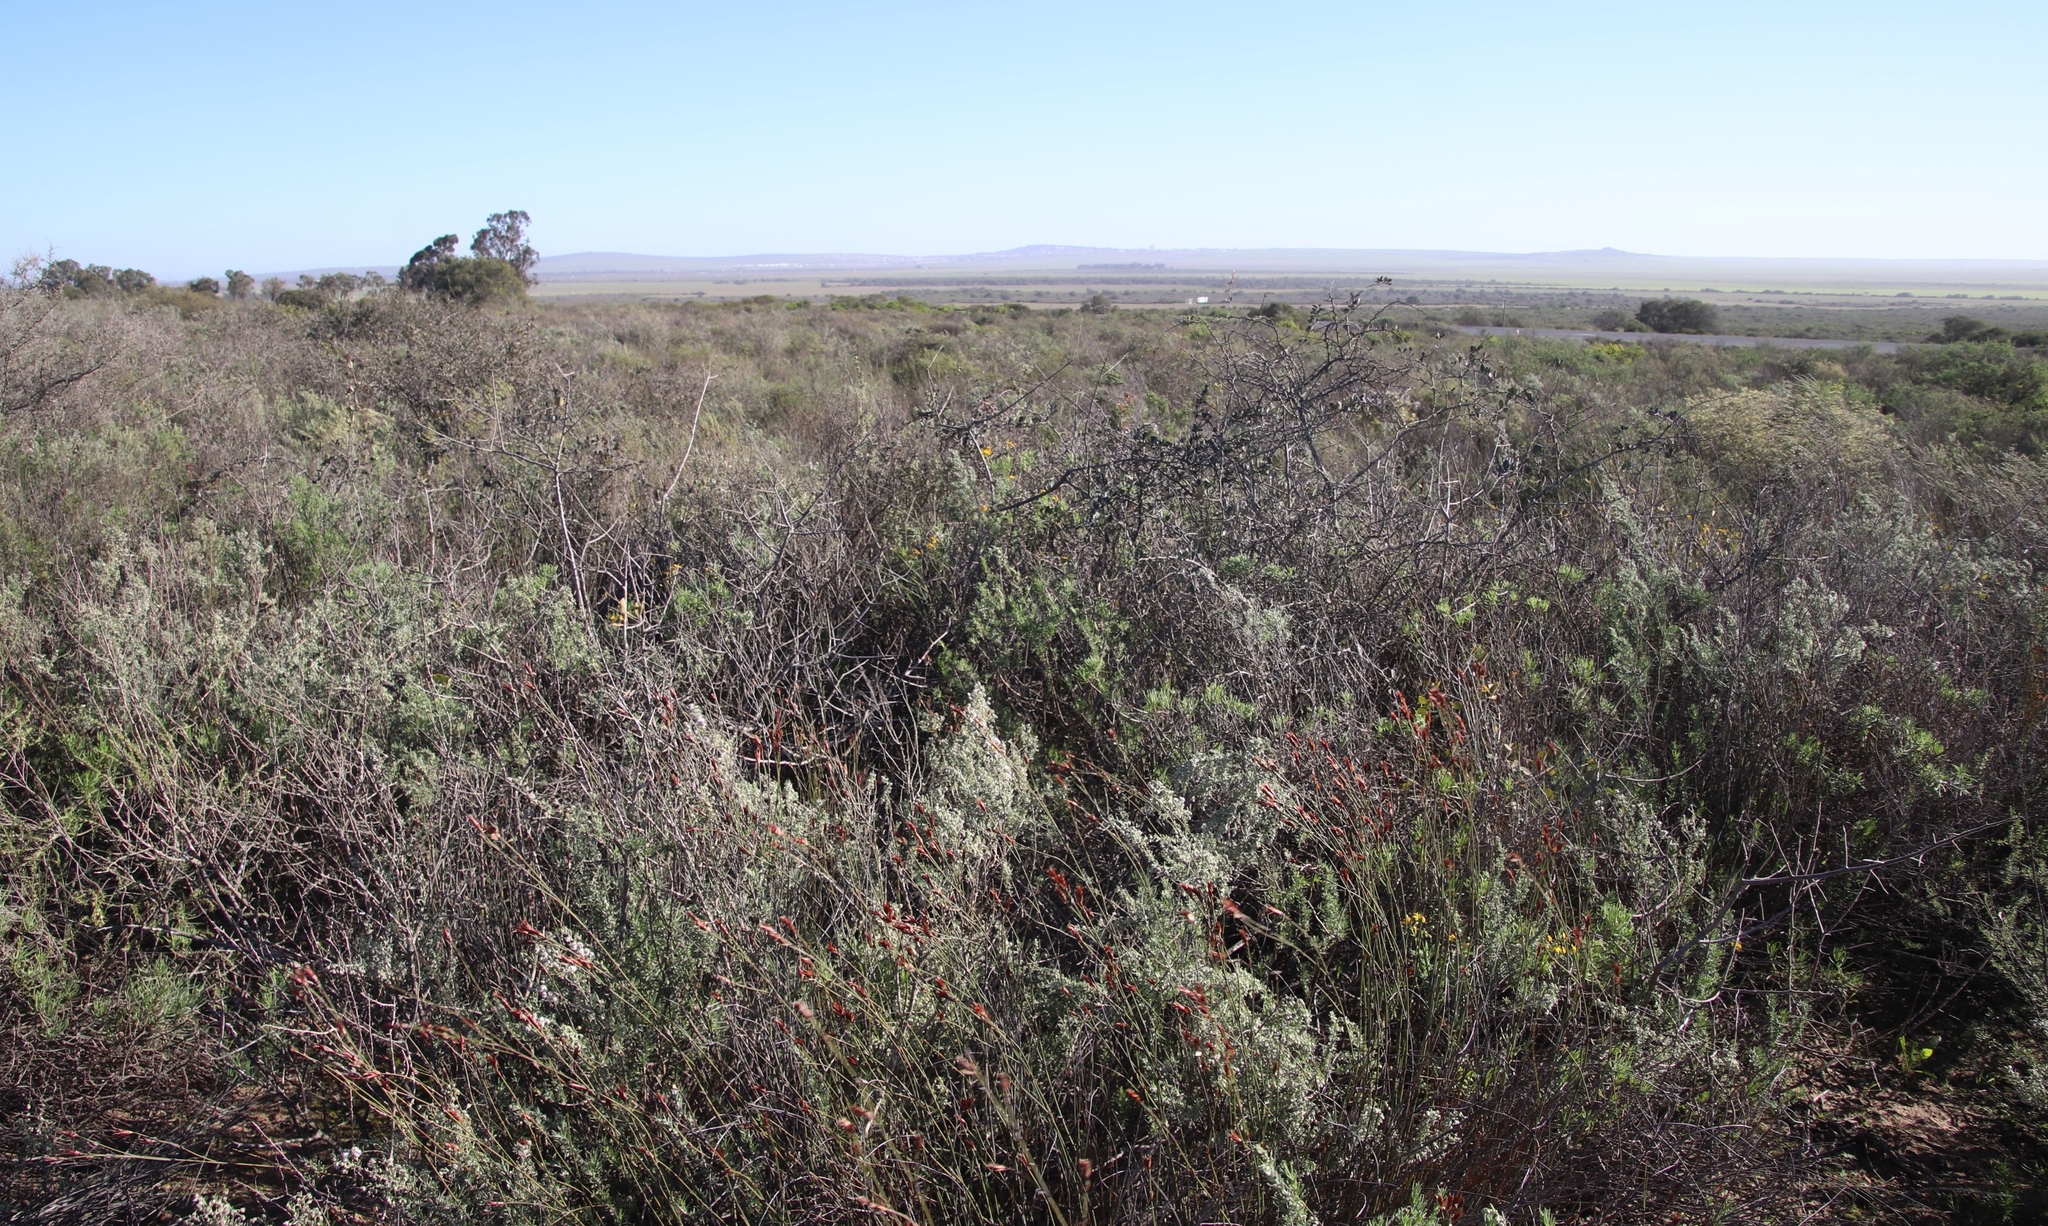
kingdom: Plantae
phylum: Tracheophyta
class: Magnoliopsida
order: Celastrales
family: Celastraceae
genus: Putterlickia
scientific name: Putterlickia pyracantha
